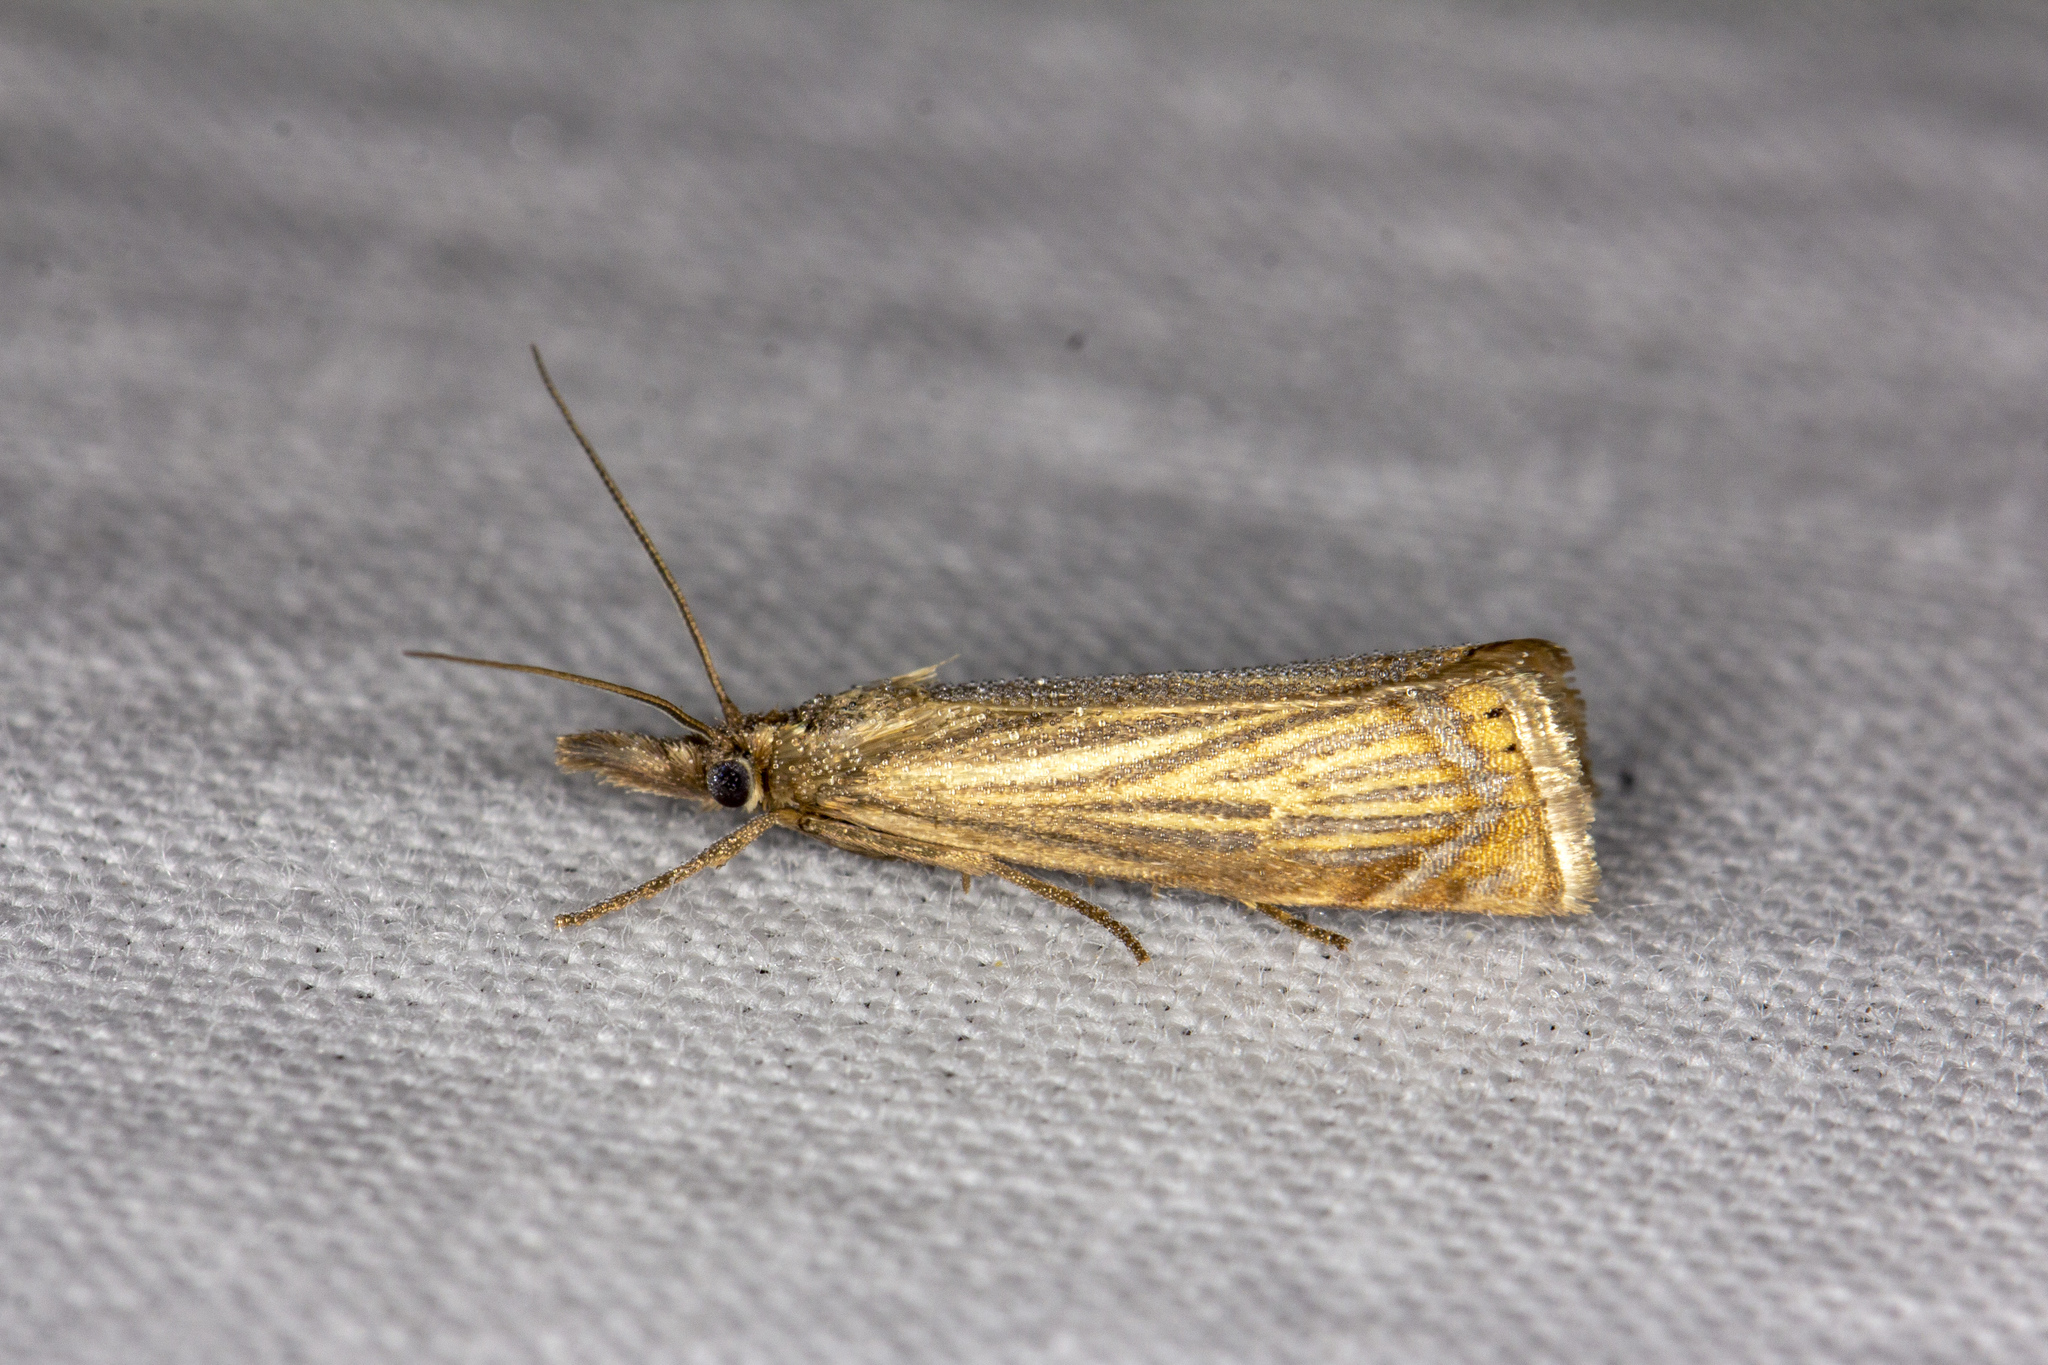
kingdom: Animalia
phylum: Arthropoda
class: Insecta
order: Lepidoptera
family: Crambidae
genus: Chrysoteuchia
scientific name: Chrysoteuchia culmella
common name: Garden grass-veneer
